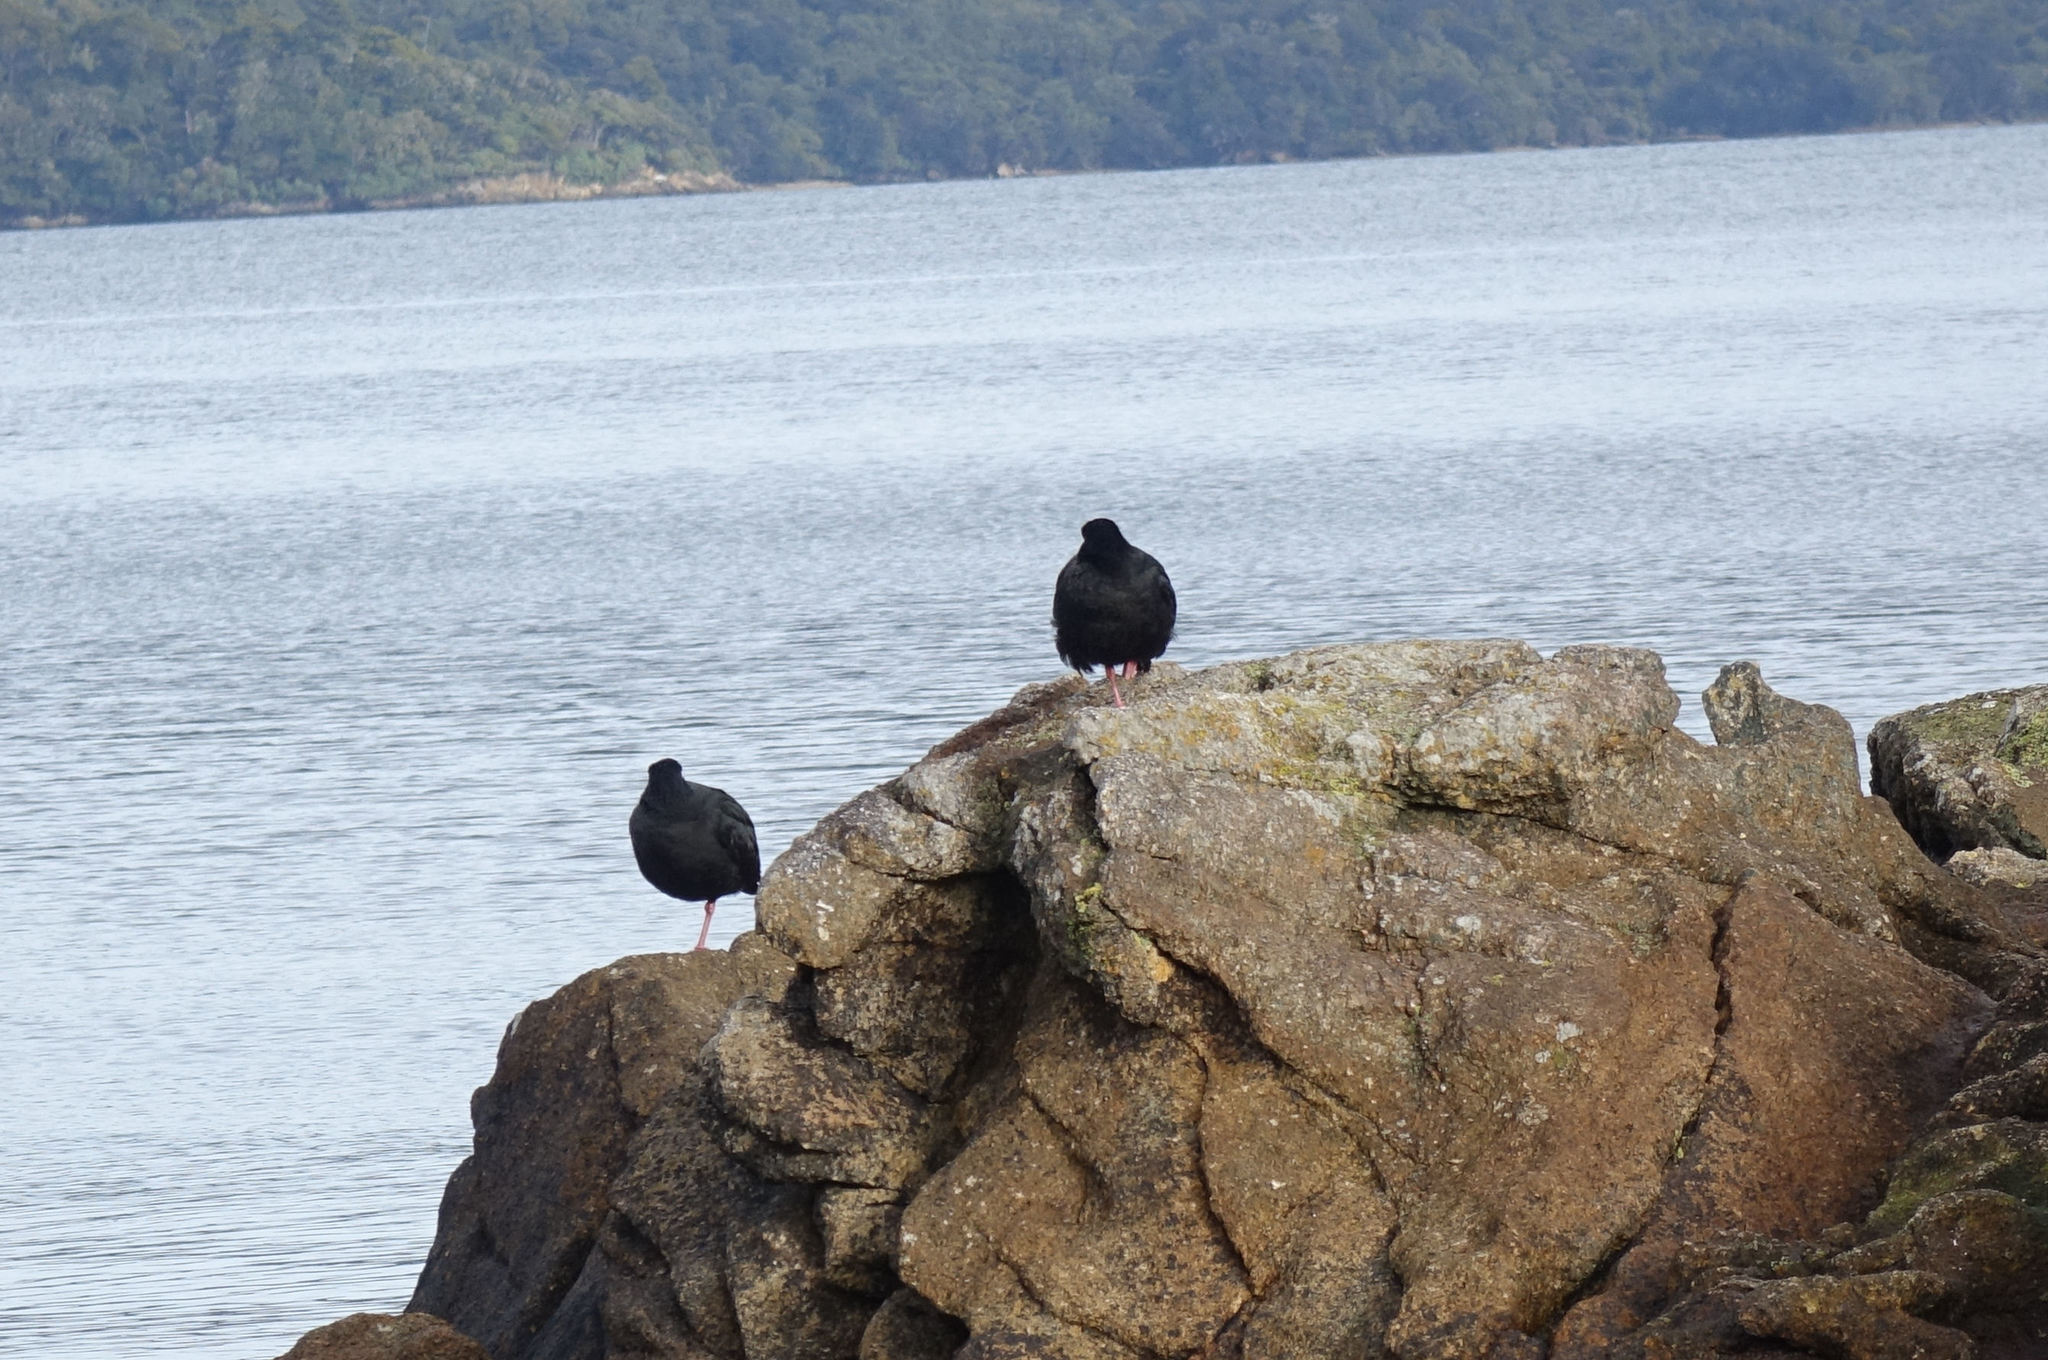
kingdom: Animalia
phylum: Chordata
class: Aves
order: Charadriiformes
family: Haematopodidae
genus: Haematopus
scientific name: Haematopus unicolor
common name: Variable oystercatcher
